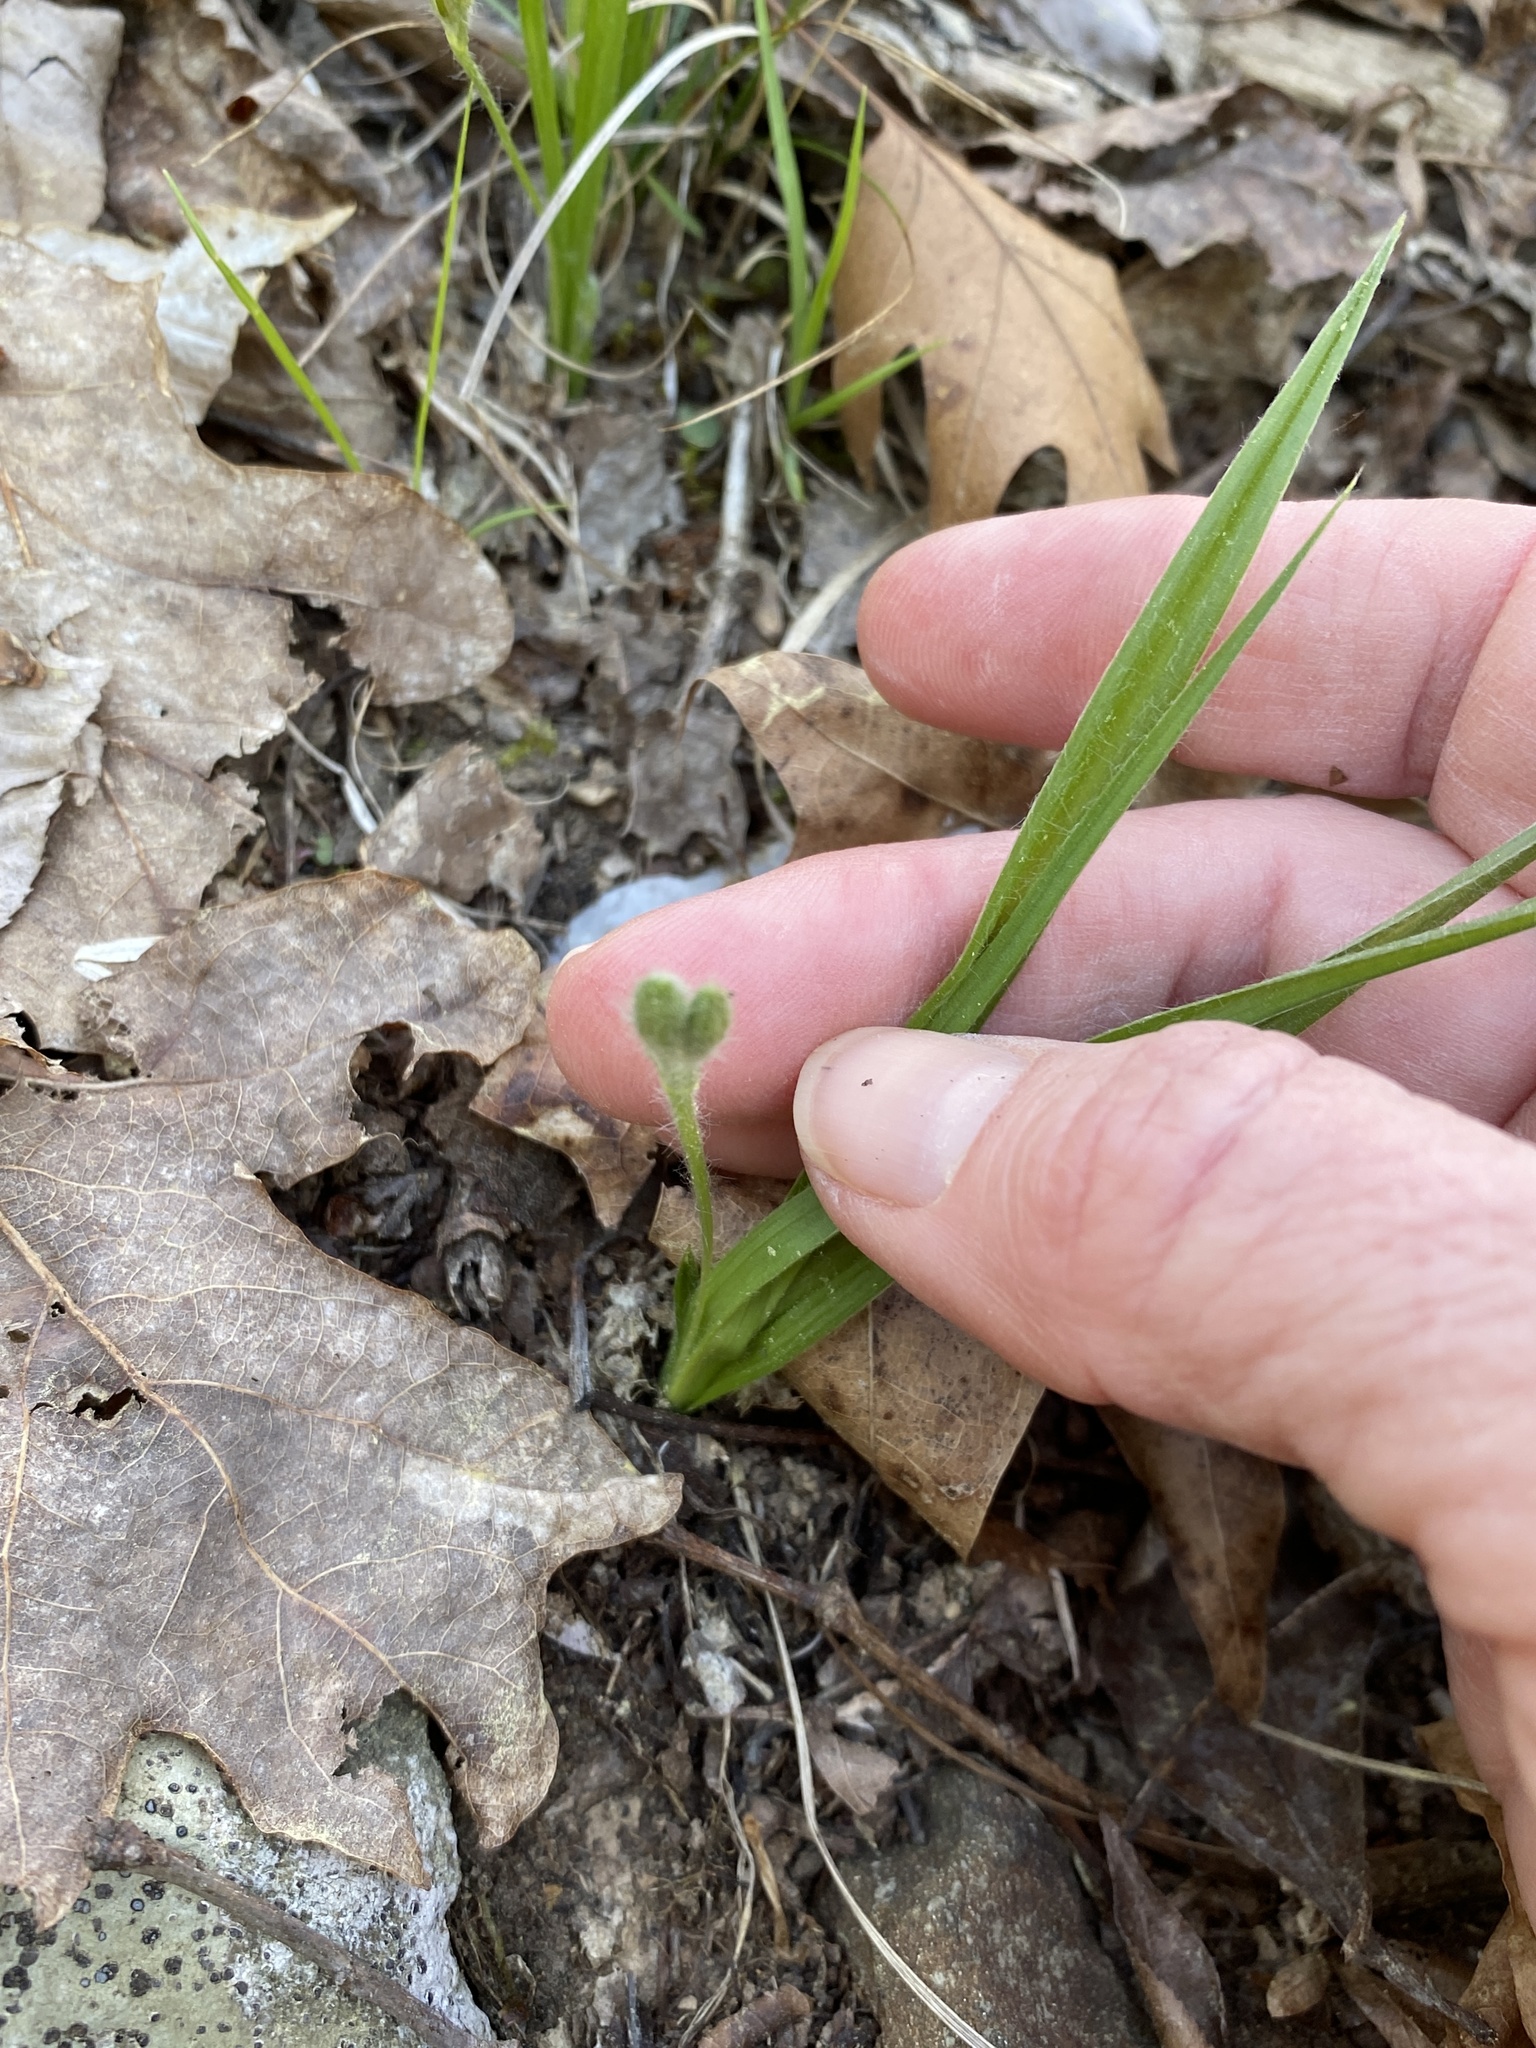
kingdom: Plantae
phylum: Tracheophyta
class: Liliopsida
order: Asparagales
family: Hypoxidaceae
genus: Hypoxis
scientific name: Hypoxis hirsuta
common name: Common goldstar
